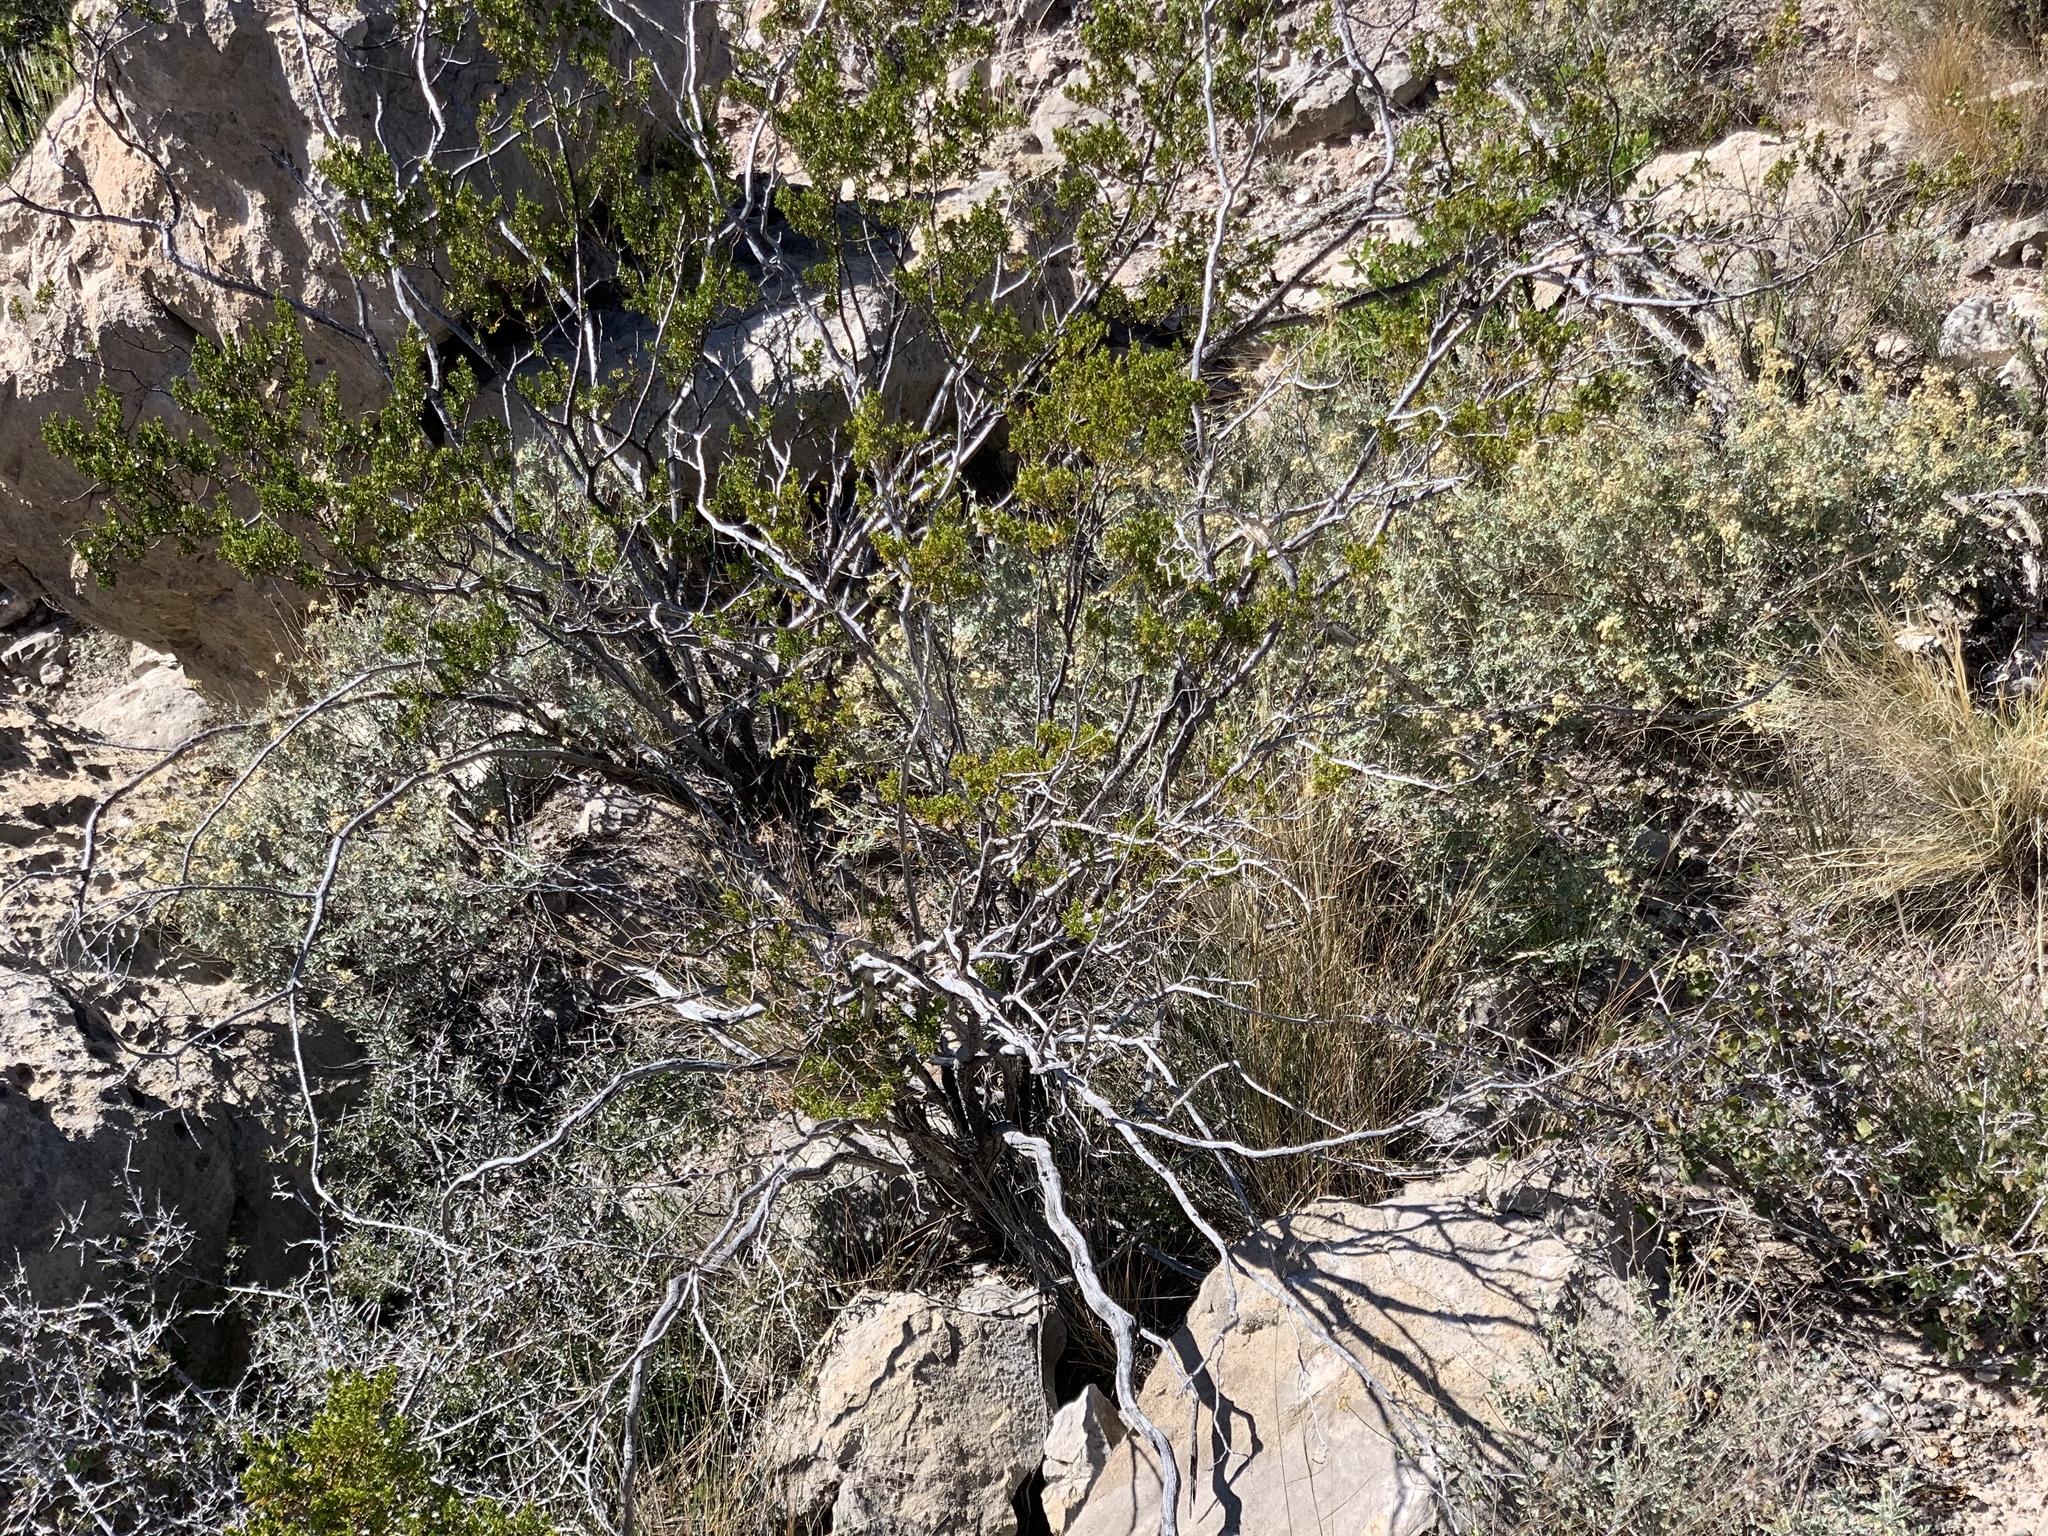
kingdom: Plantae
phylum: Tracheophyta
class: Magnoliopsida
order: Zygophyllales
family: Zygophyllaceae
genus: Larrea
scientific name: Larrea tridentata
